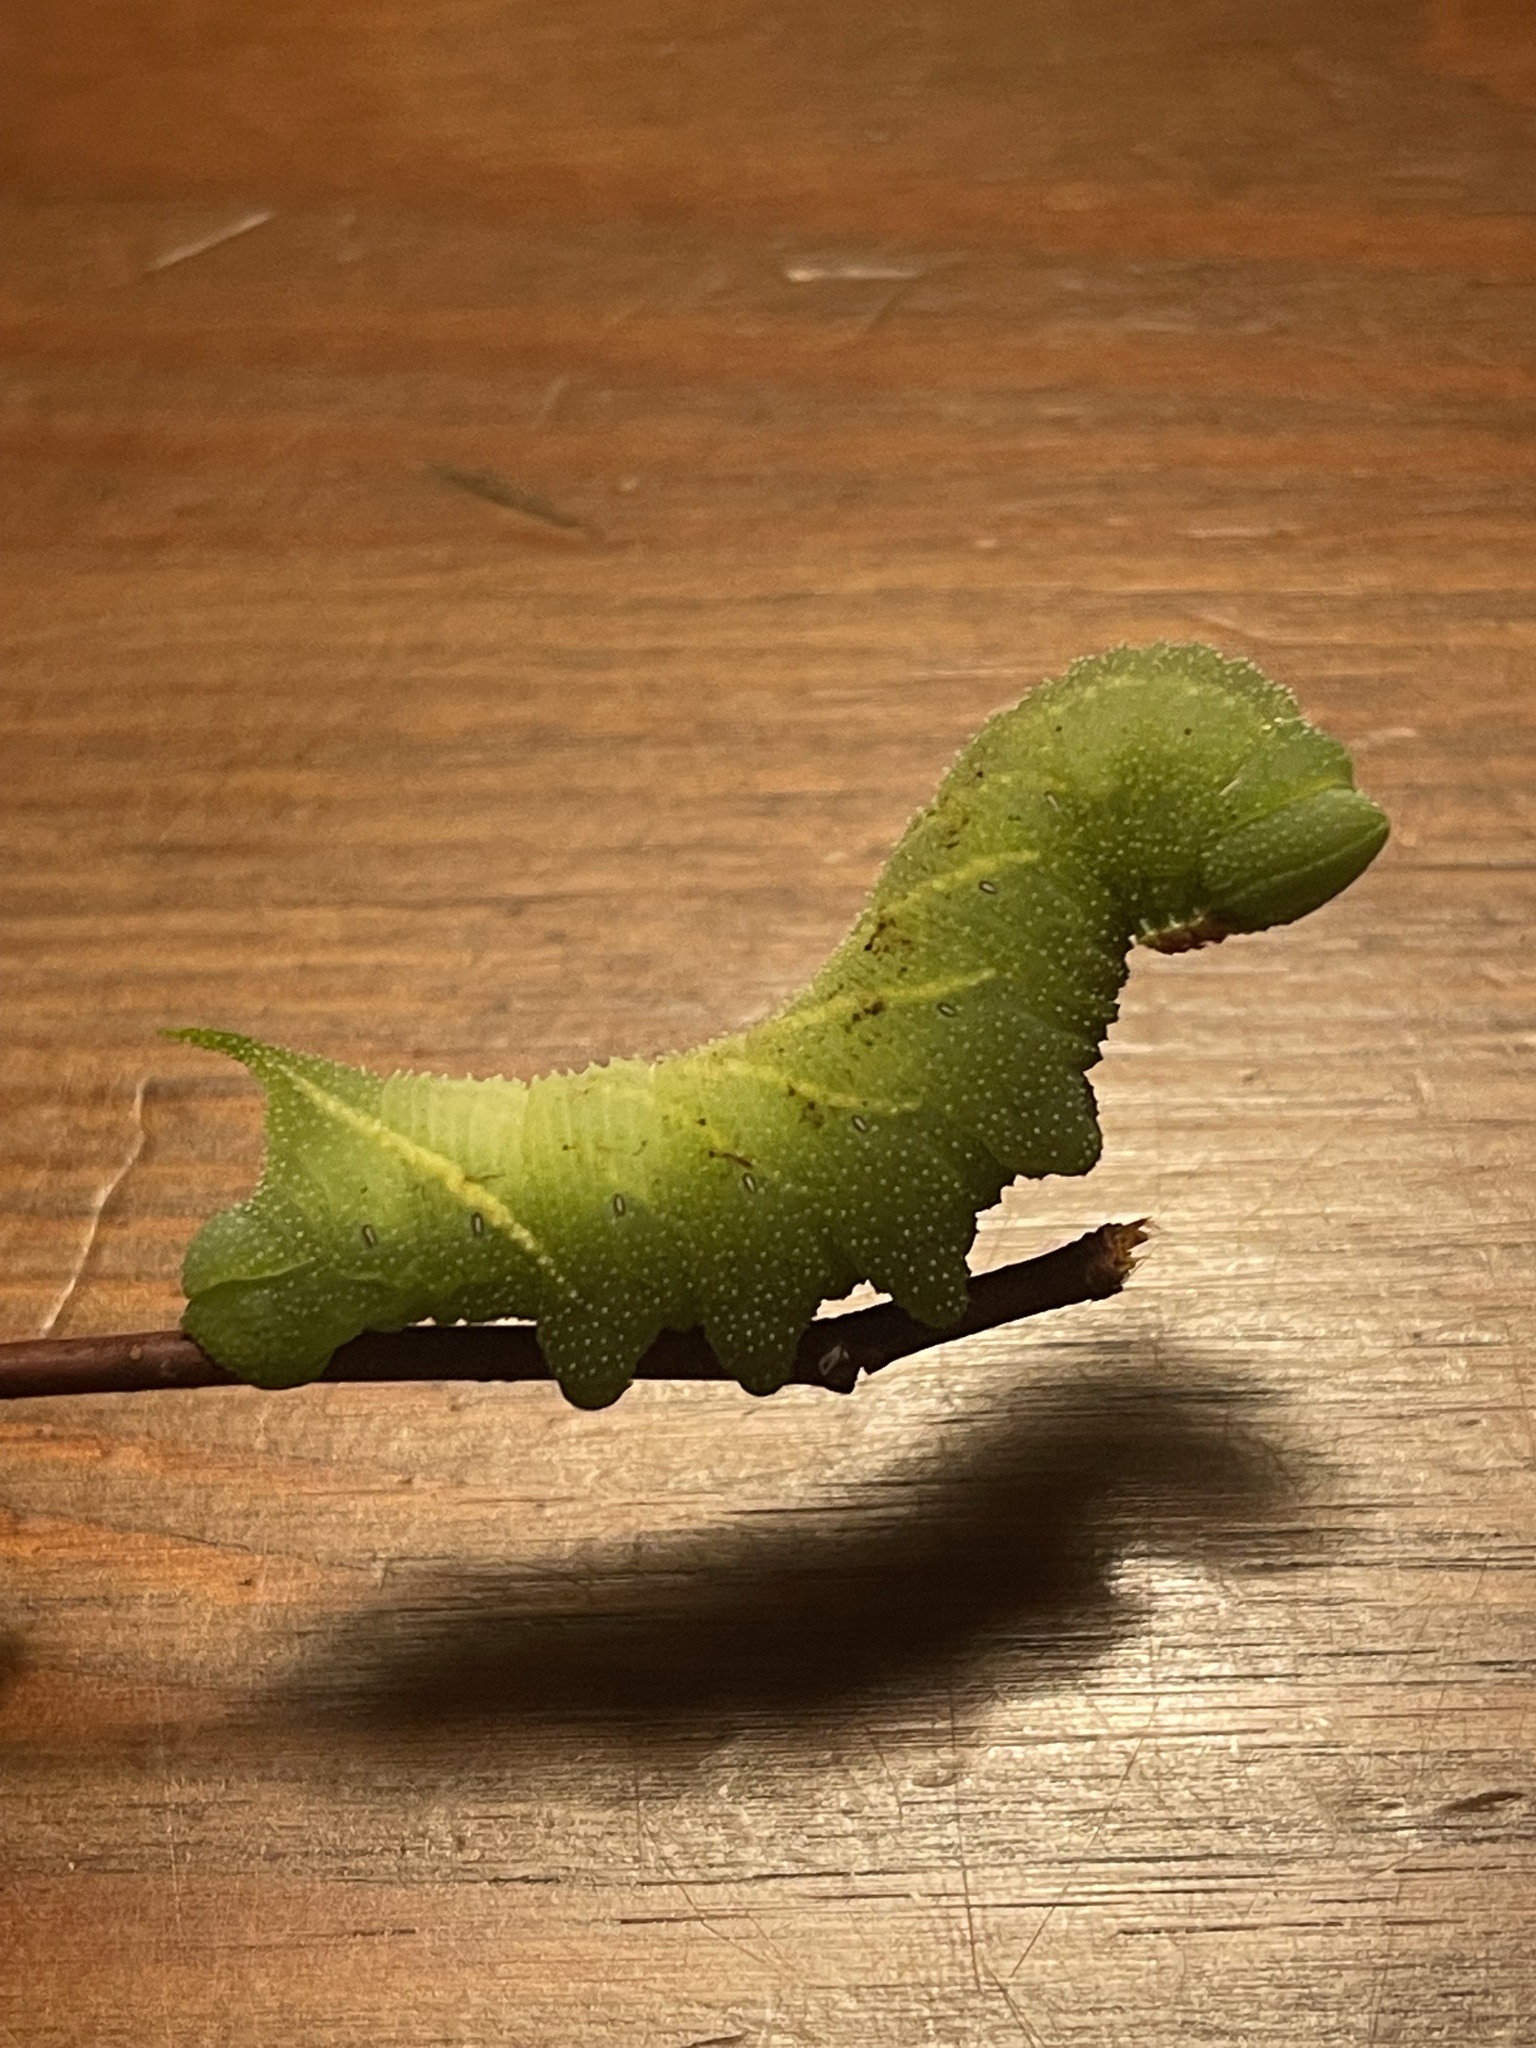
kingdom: Animalia
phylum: Arthropoda
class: Insecta
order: Lepidoptera
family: Sphingidae
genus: Paonias
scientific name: Paonias excaecata
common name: Blind-eyed sphinx
